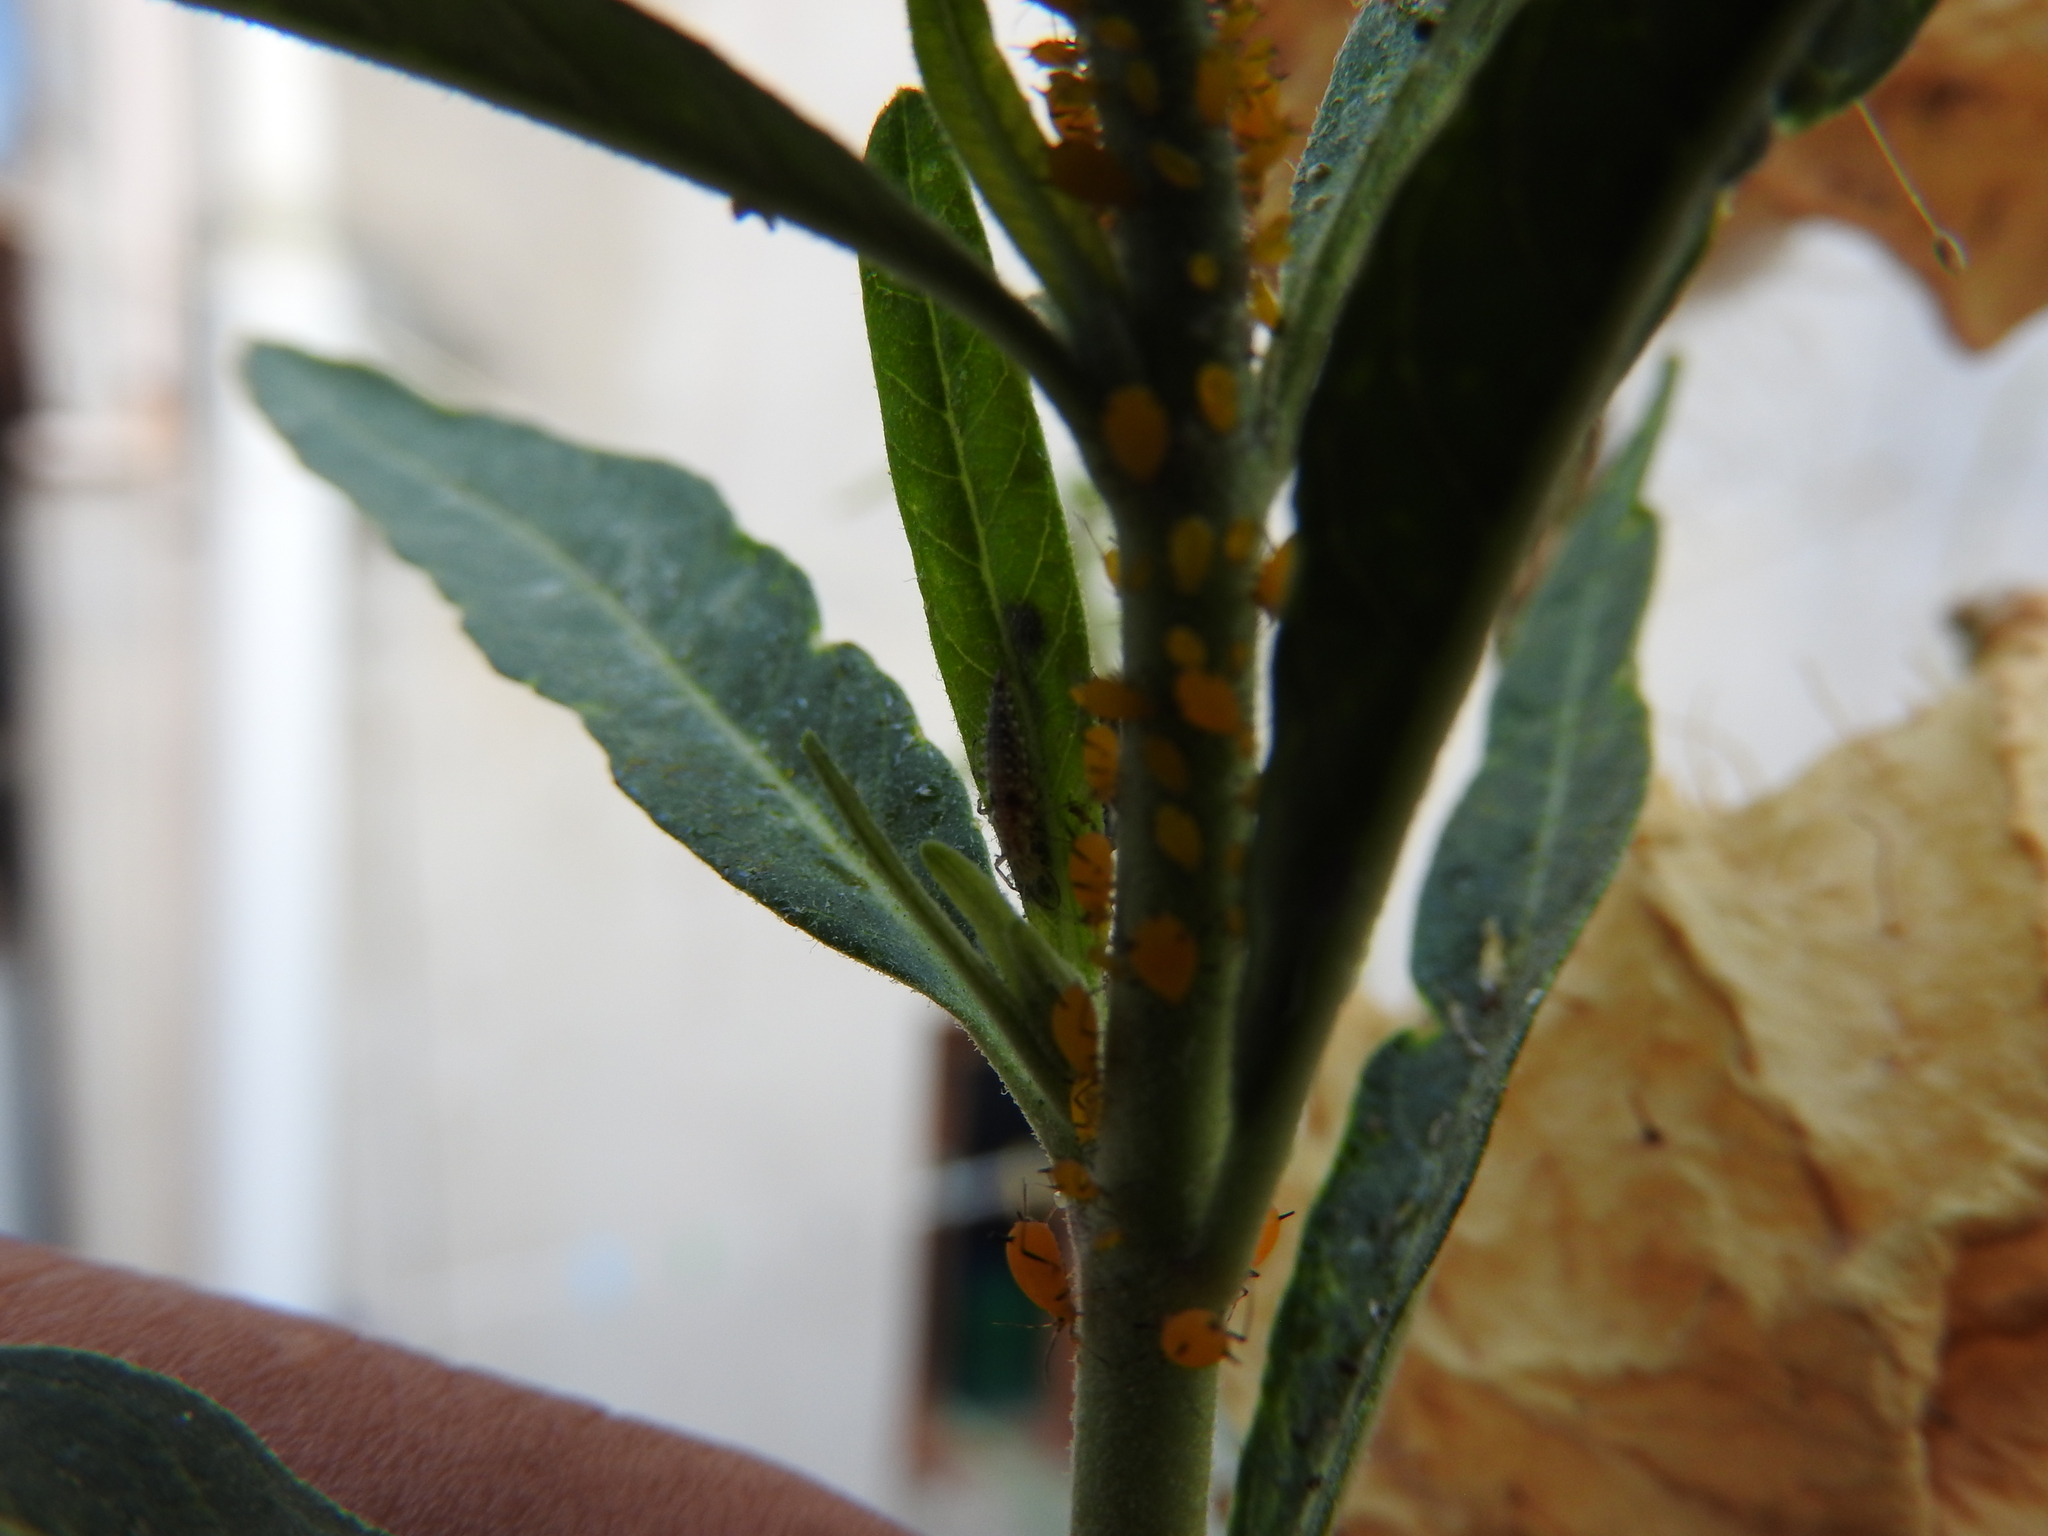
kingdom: Animalia
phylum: Arthropoda
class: Insecta
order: Hemiptera
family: Aphididae
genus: Aphis
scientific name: Aphis nerii
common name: Oleander aphid
